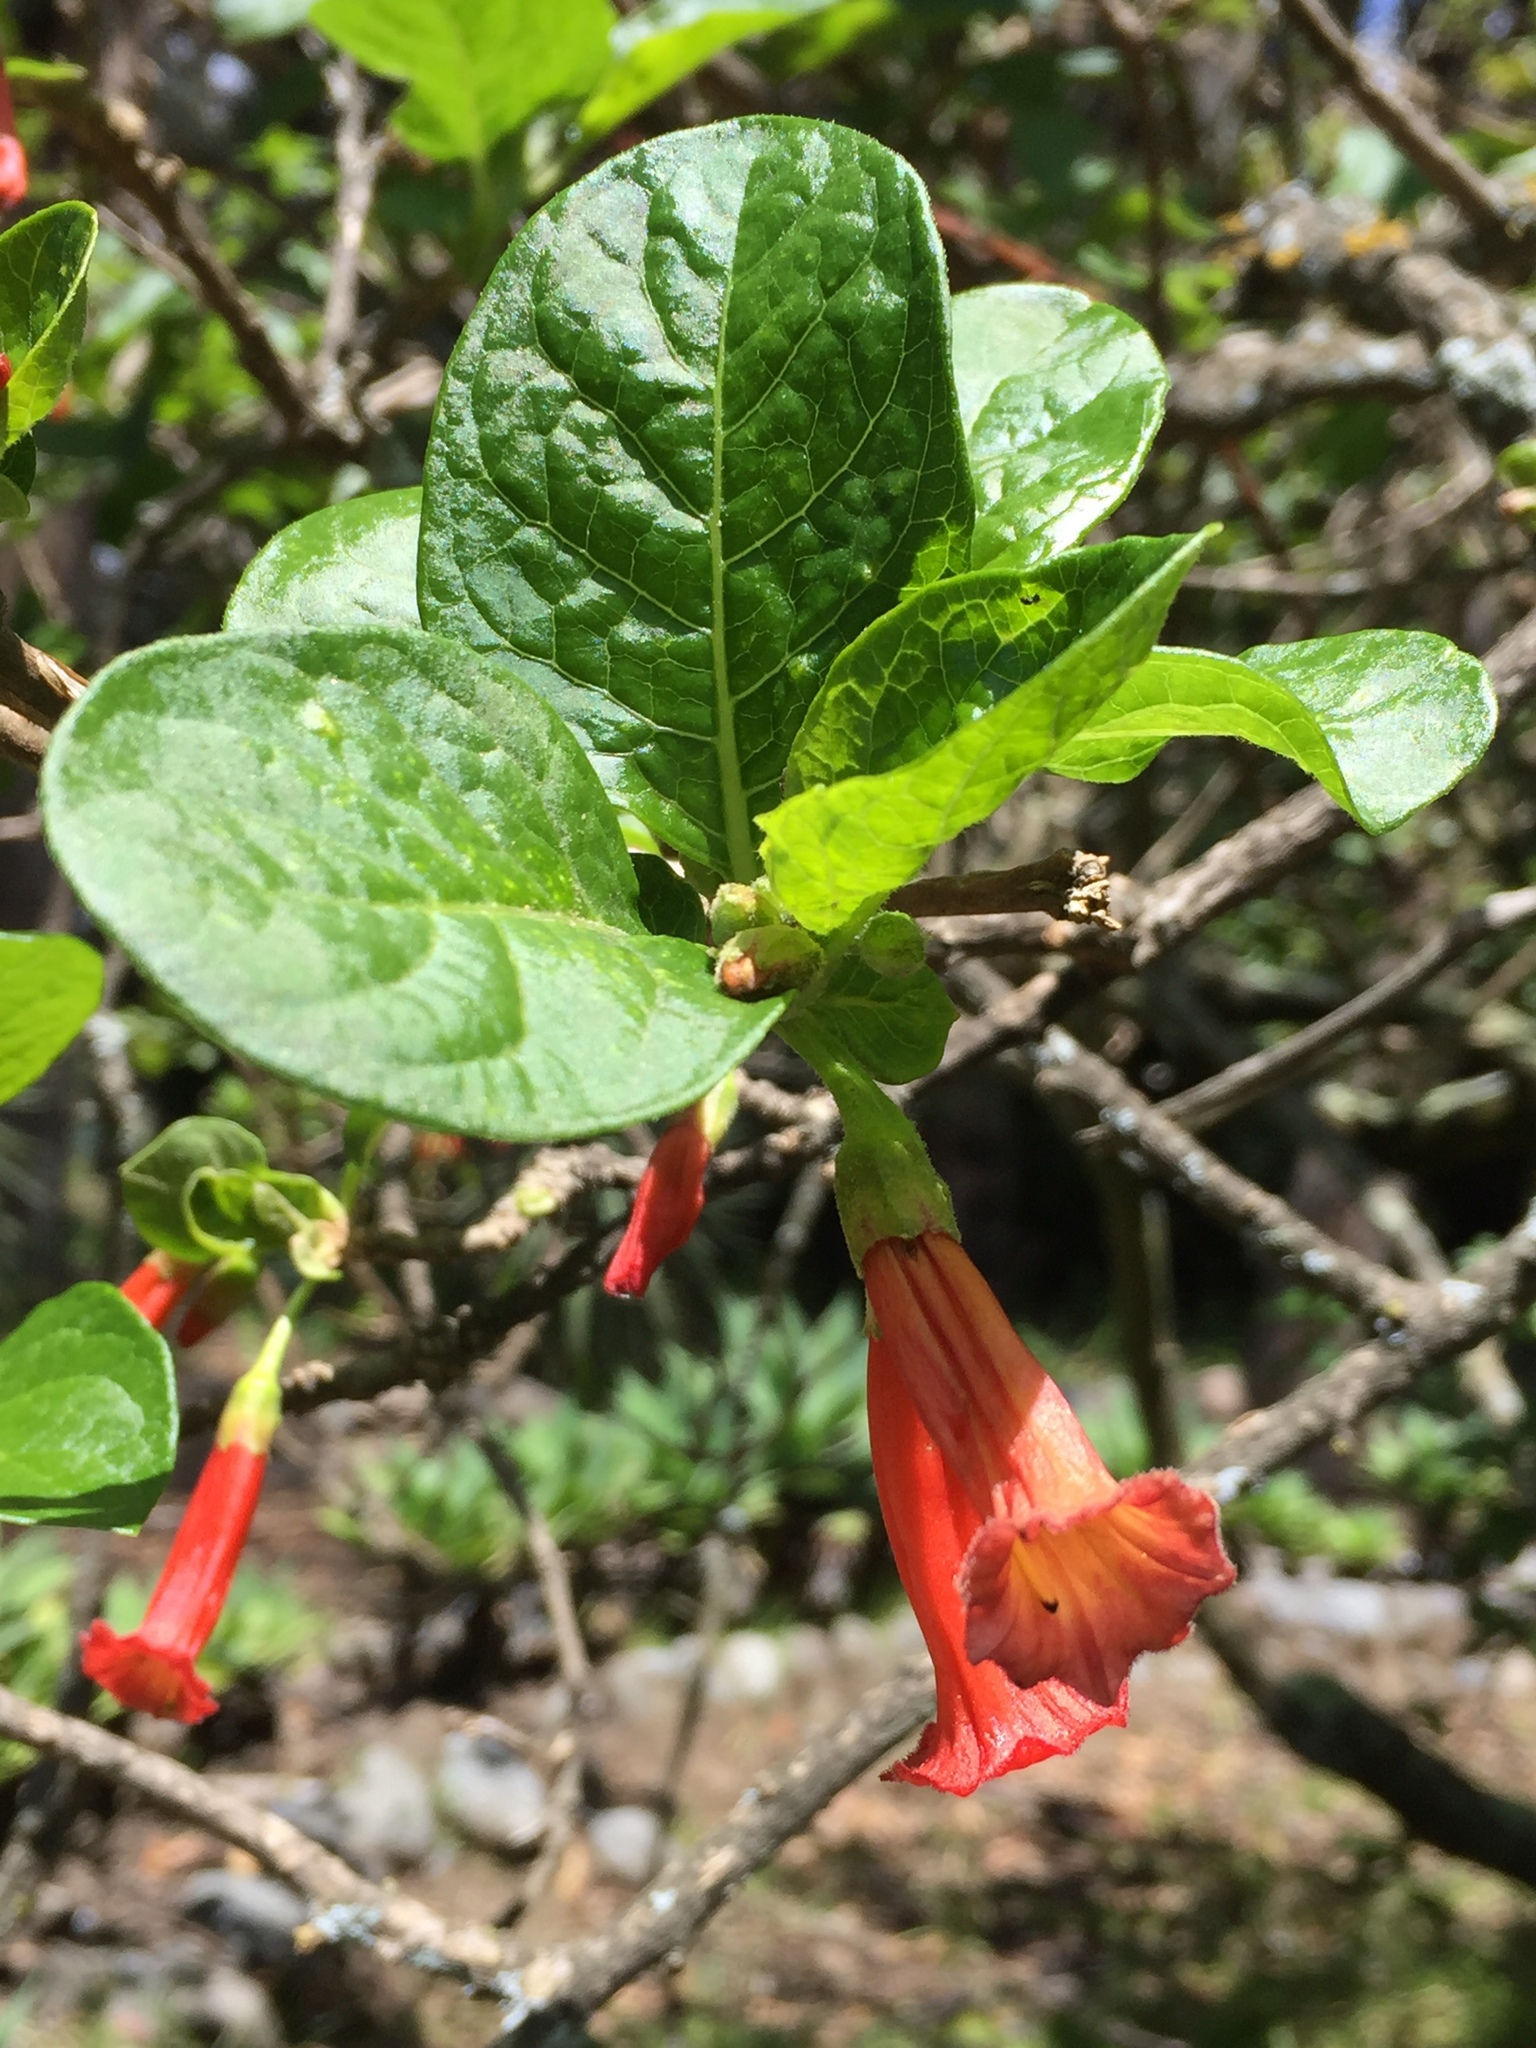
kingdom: Plantae
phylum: Tracheophyta
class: Magnoliopsida
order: Solanales
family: Solanaceae
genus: Iochroma
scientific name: Iochroma fuchsioides
